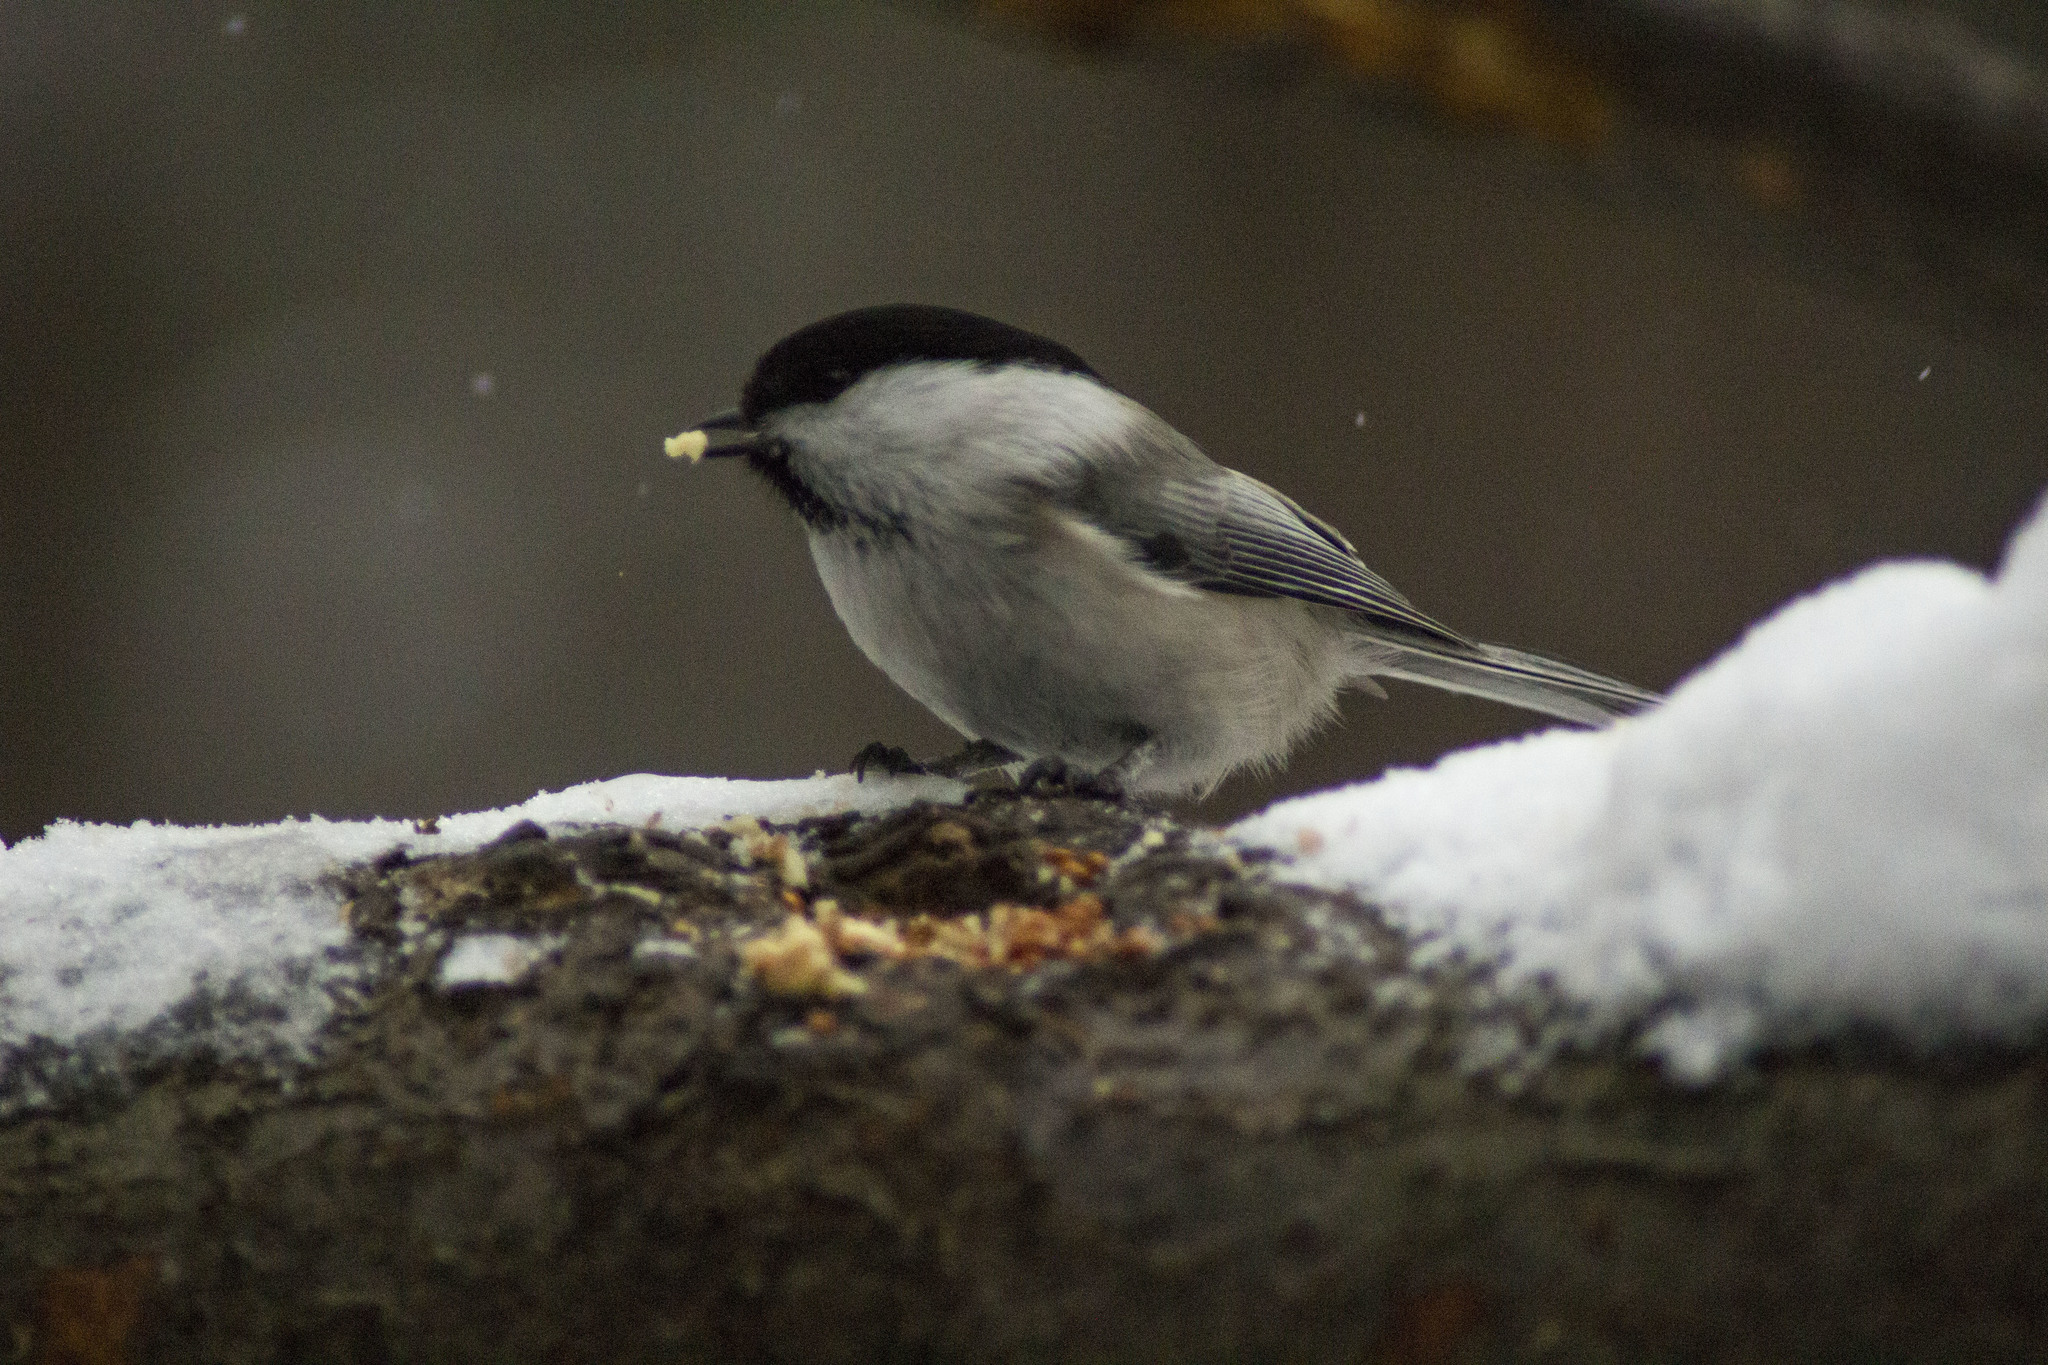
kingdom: Animalia
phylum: Chordata
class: Aves
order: Passeriformes
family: Paridae
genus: Poecile
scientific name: Poecile montanus
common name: Willow tit
